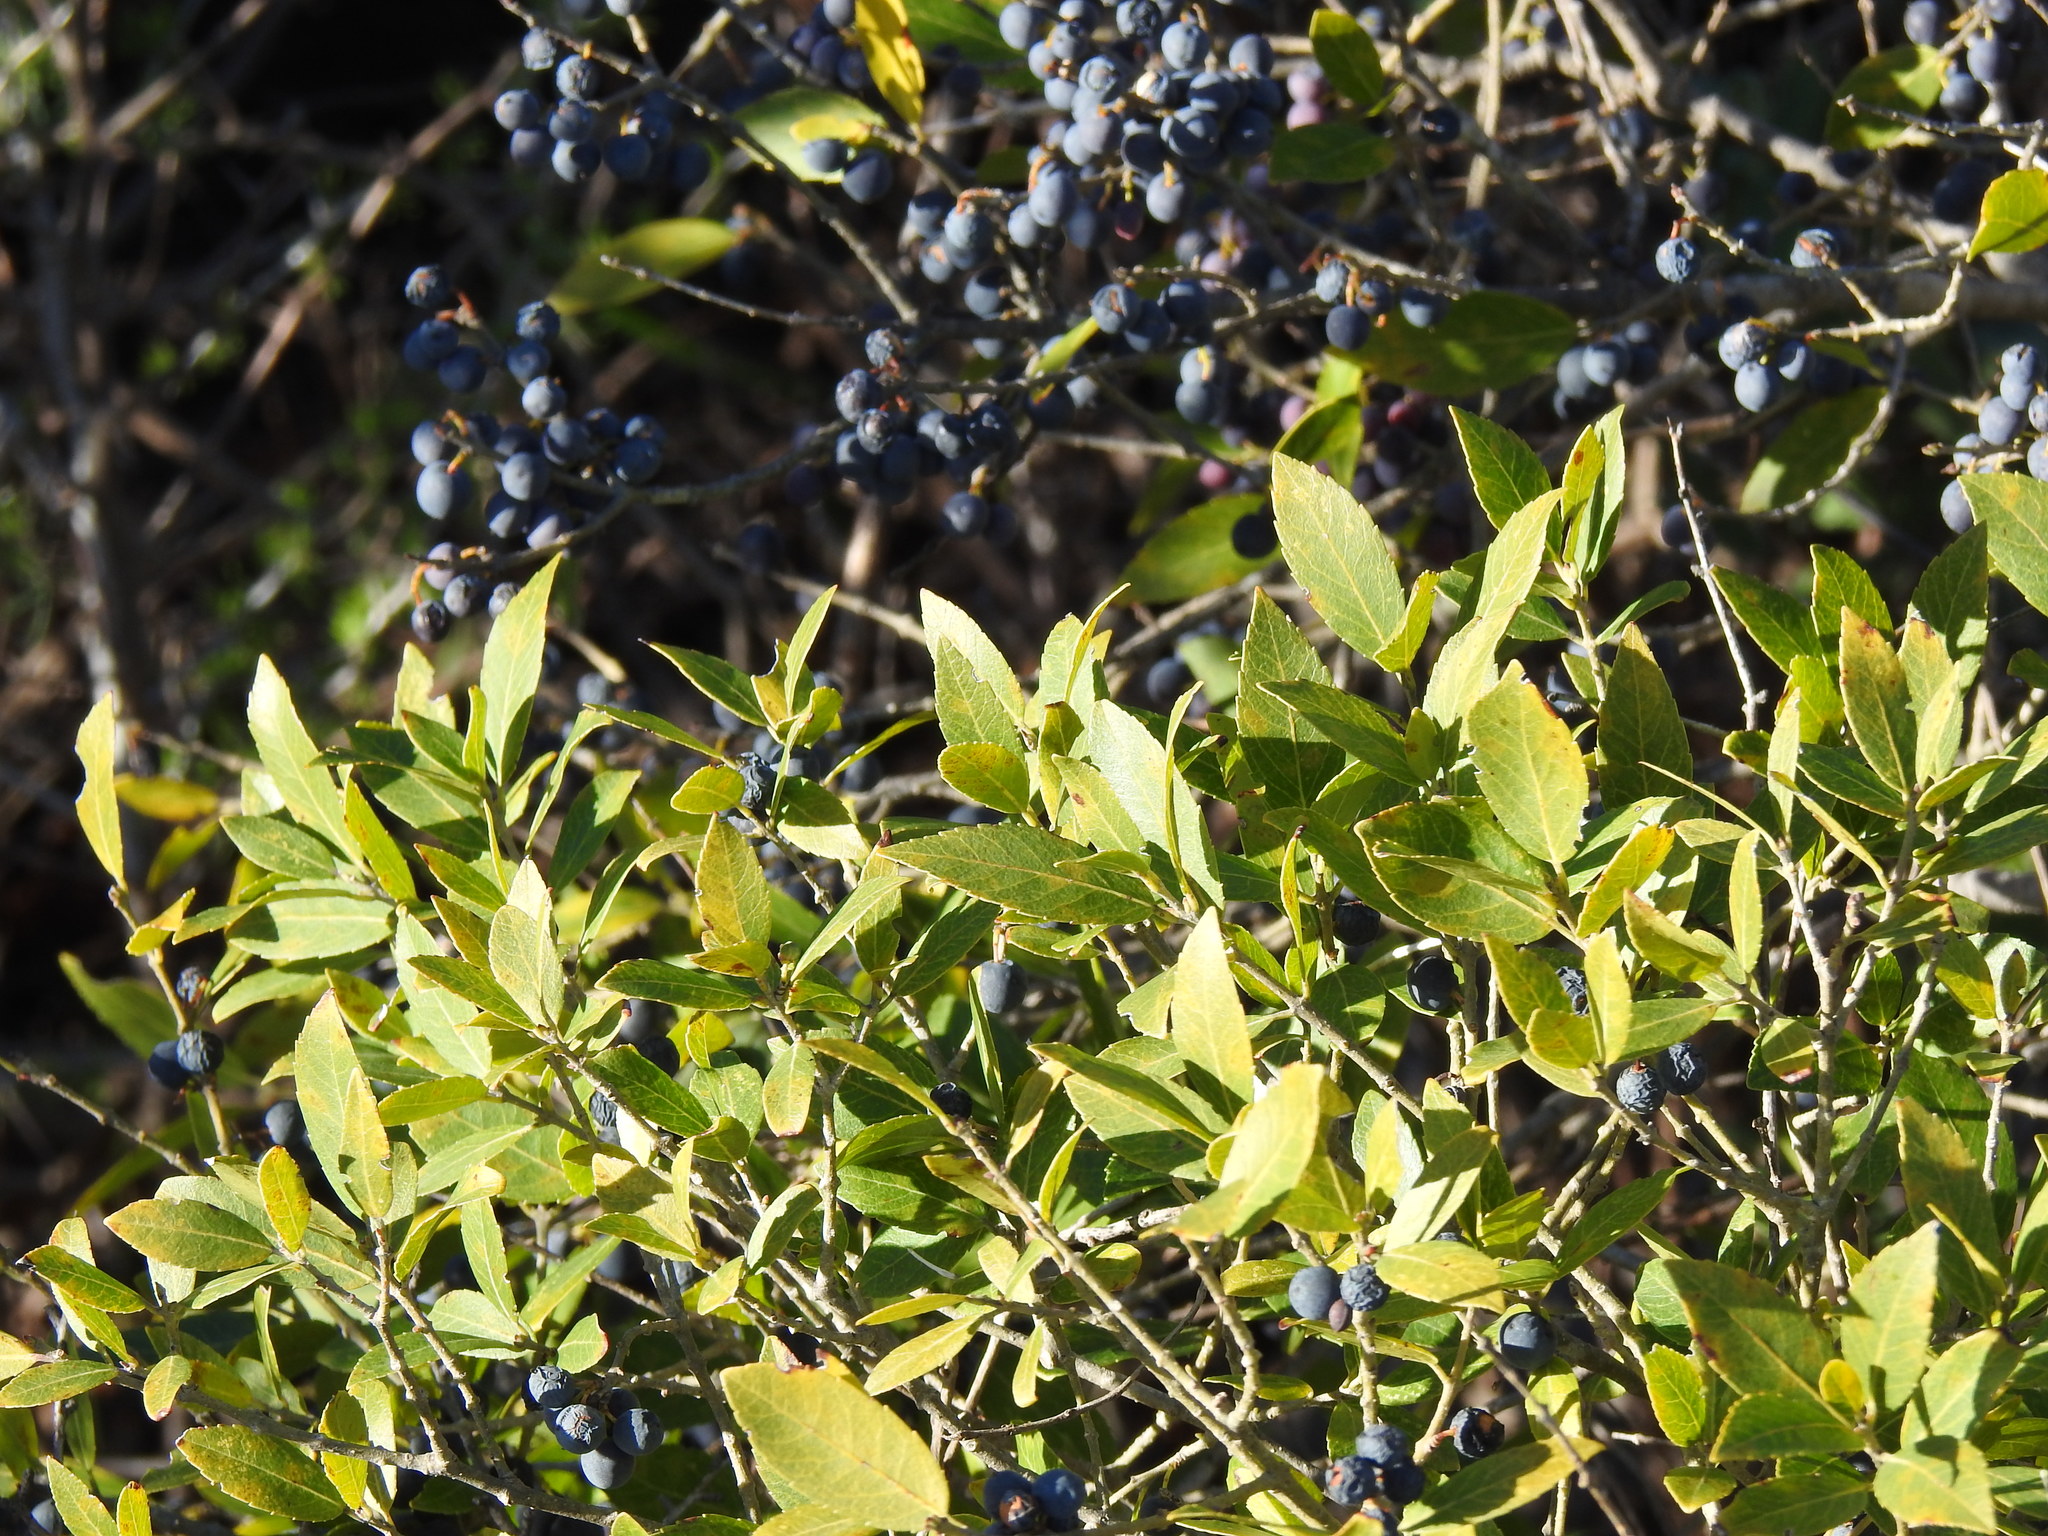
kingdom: Plantae
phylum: Tracheophyta
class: Magnoliopsida
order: Lamiales
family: Oleaceae
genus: Phillyrea
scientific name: Phillyrea latifolia
